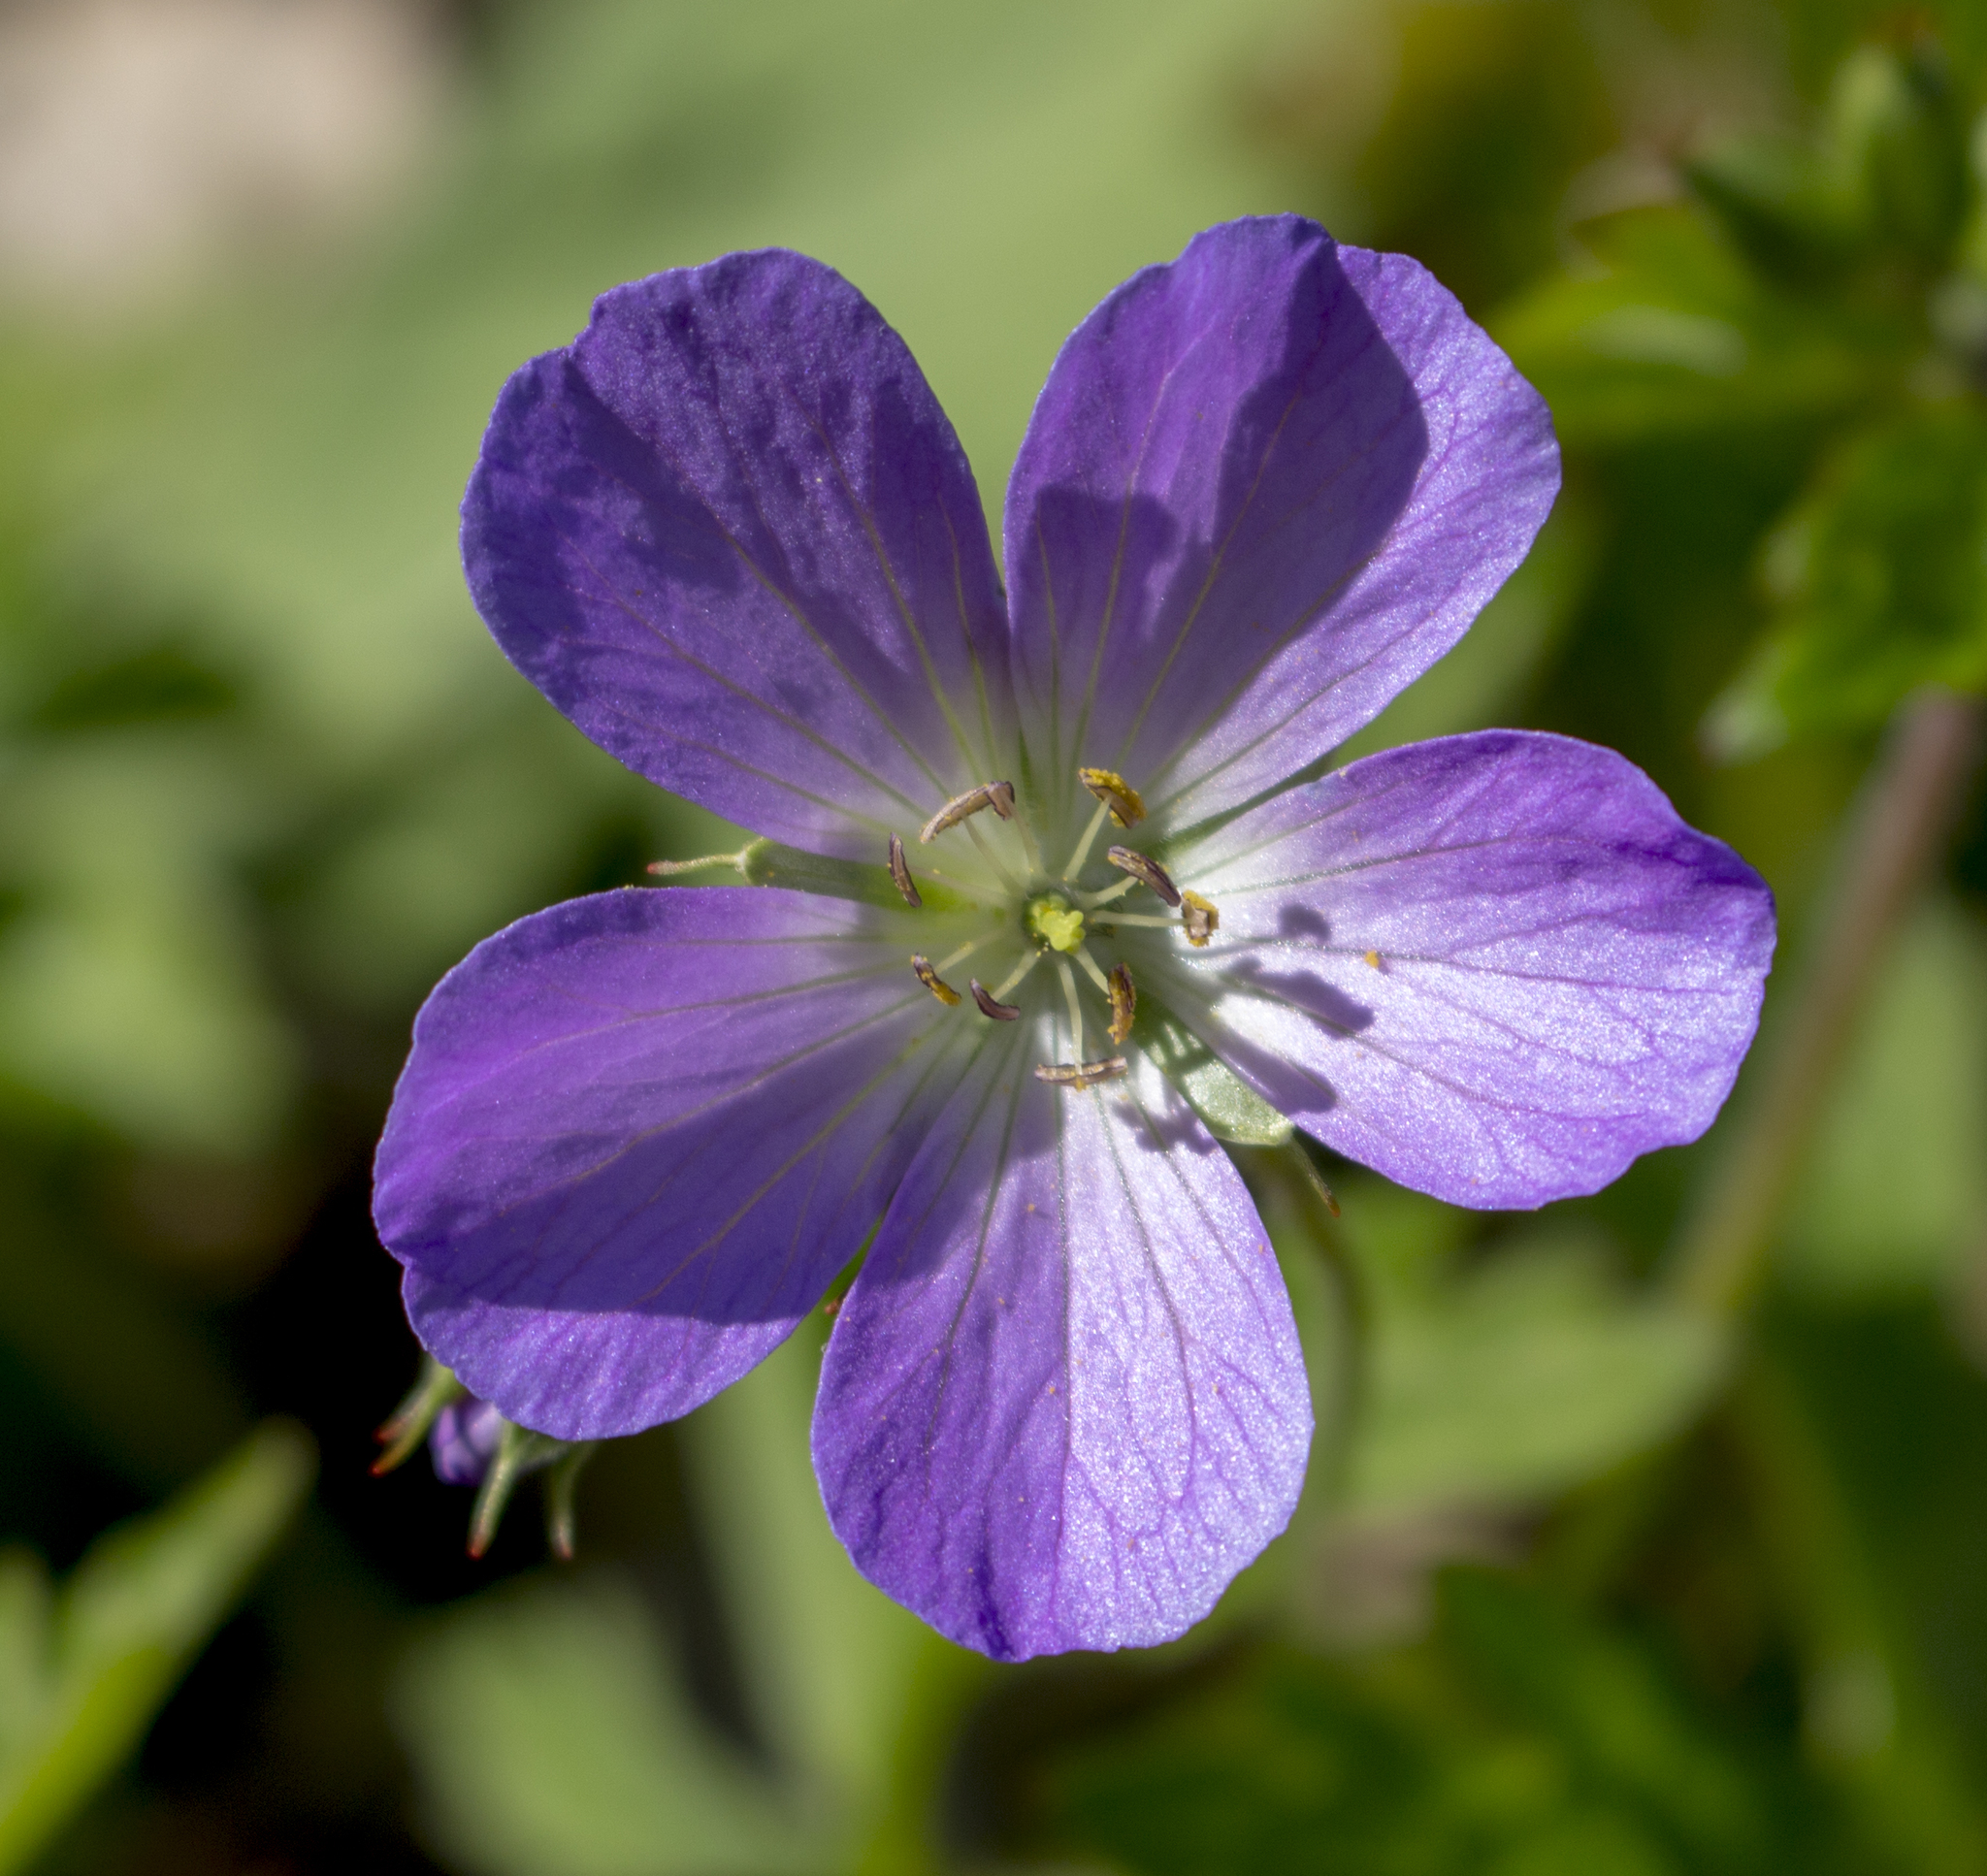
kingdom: Plantae
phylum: Tracheophyta
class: Magnoliopsida
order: Geraniales
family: Geraniaceae
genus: Geranium
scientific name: Geranium maculatum
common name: Spotted geranium
